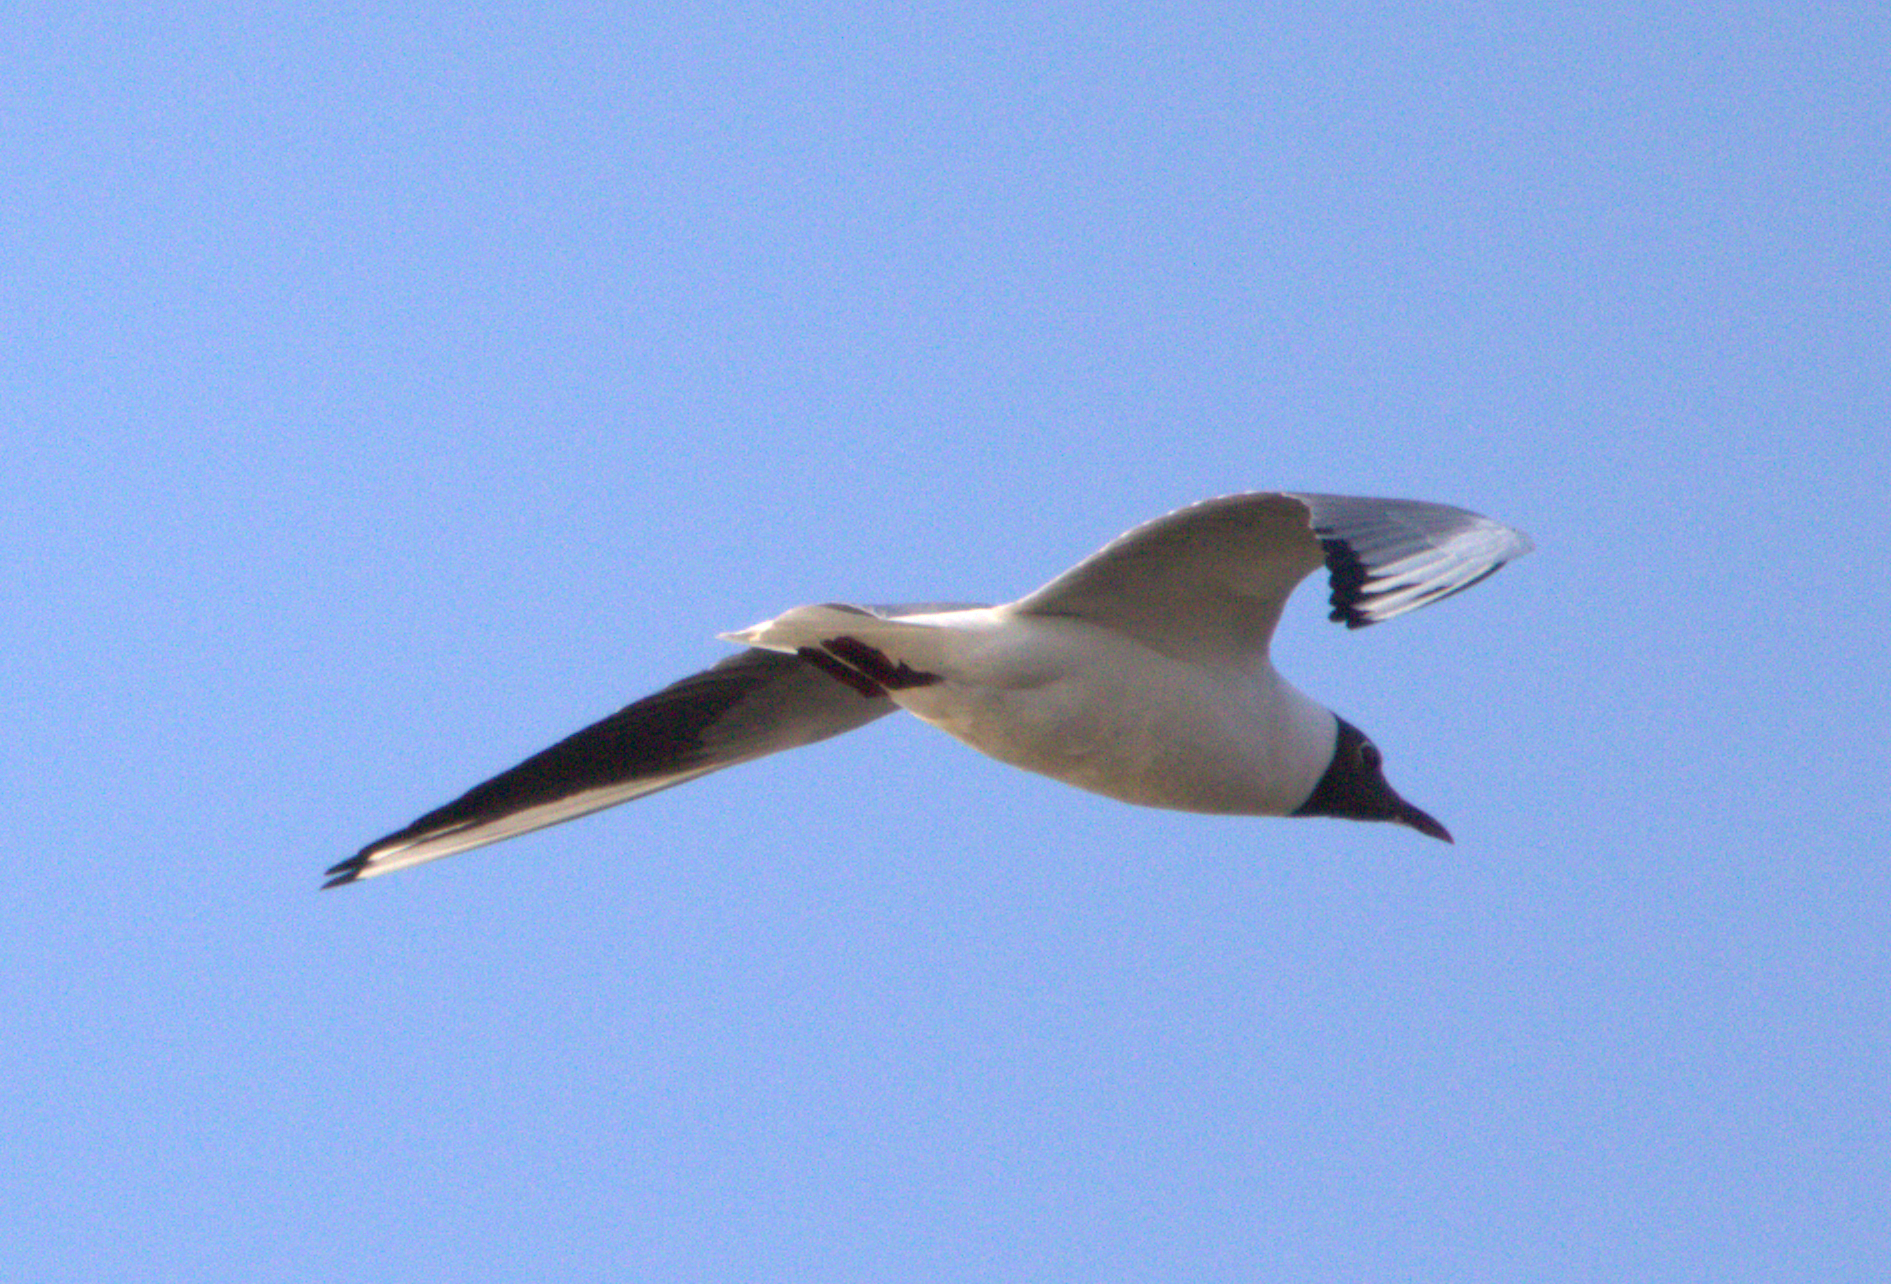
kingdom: Animalia
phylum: Chordata
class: Aves
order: Charadriiformes
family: Laridae
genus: Chroicocephalus
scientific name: Chroicocephalus ridibundus
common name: Black-headed gull
